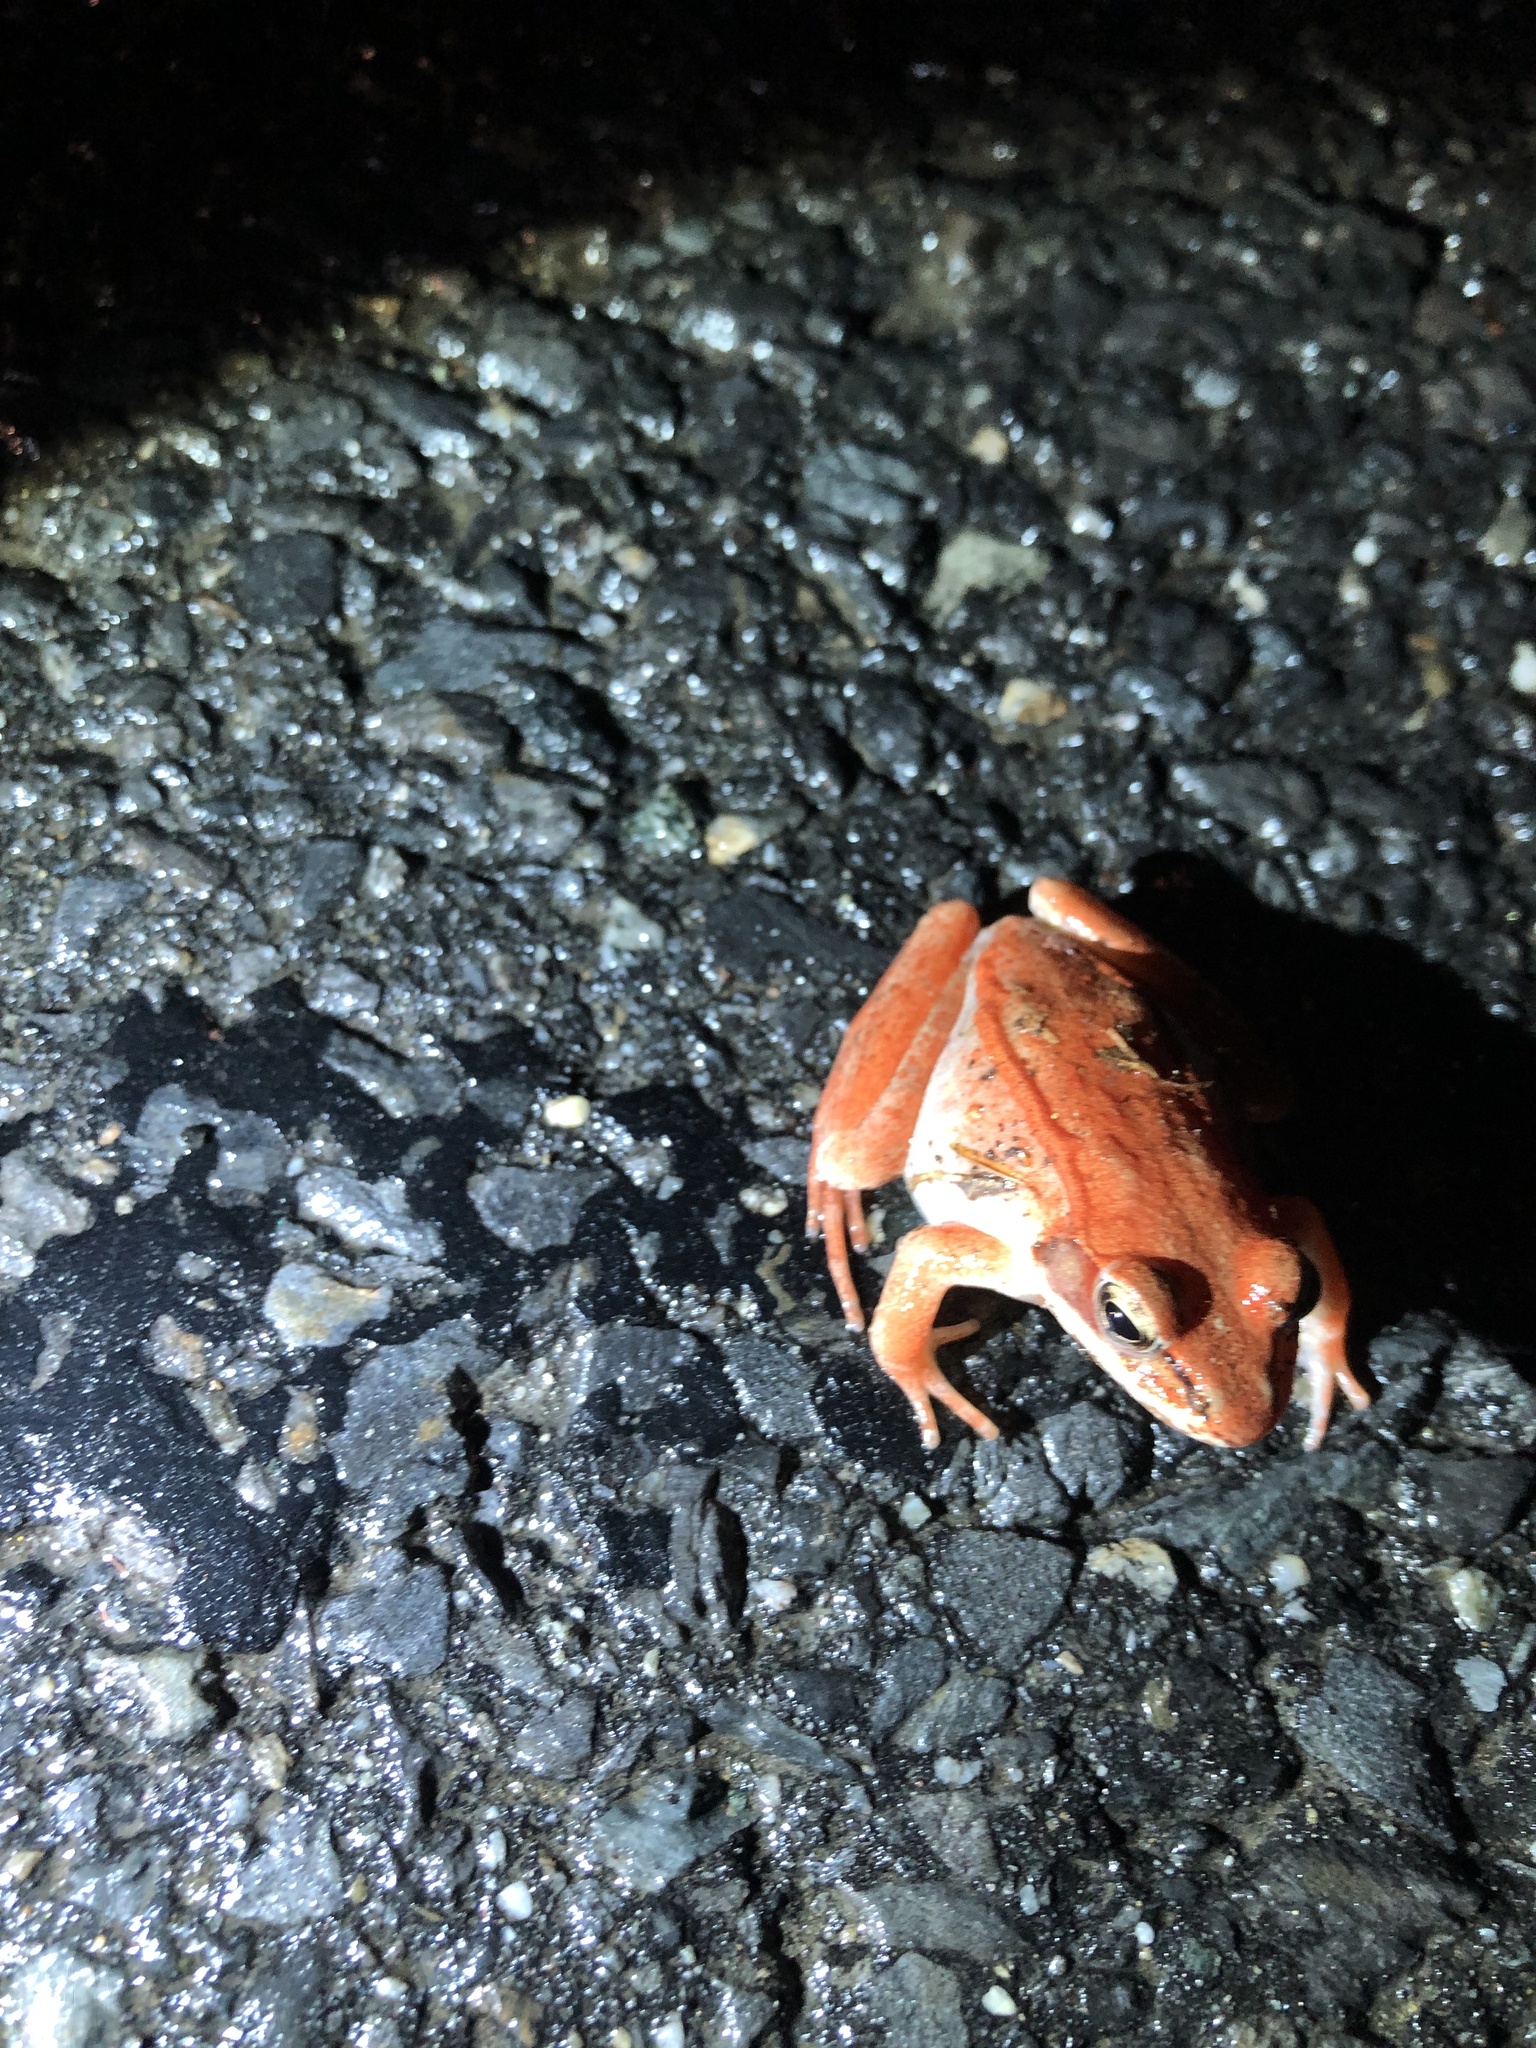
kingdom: Animalia
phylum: Chordata
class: Amphibia
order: Anura
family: Ranidae
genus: Lithobates
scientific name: Lithobates sylvaticus
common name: Wood frog
